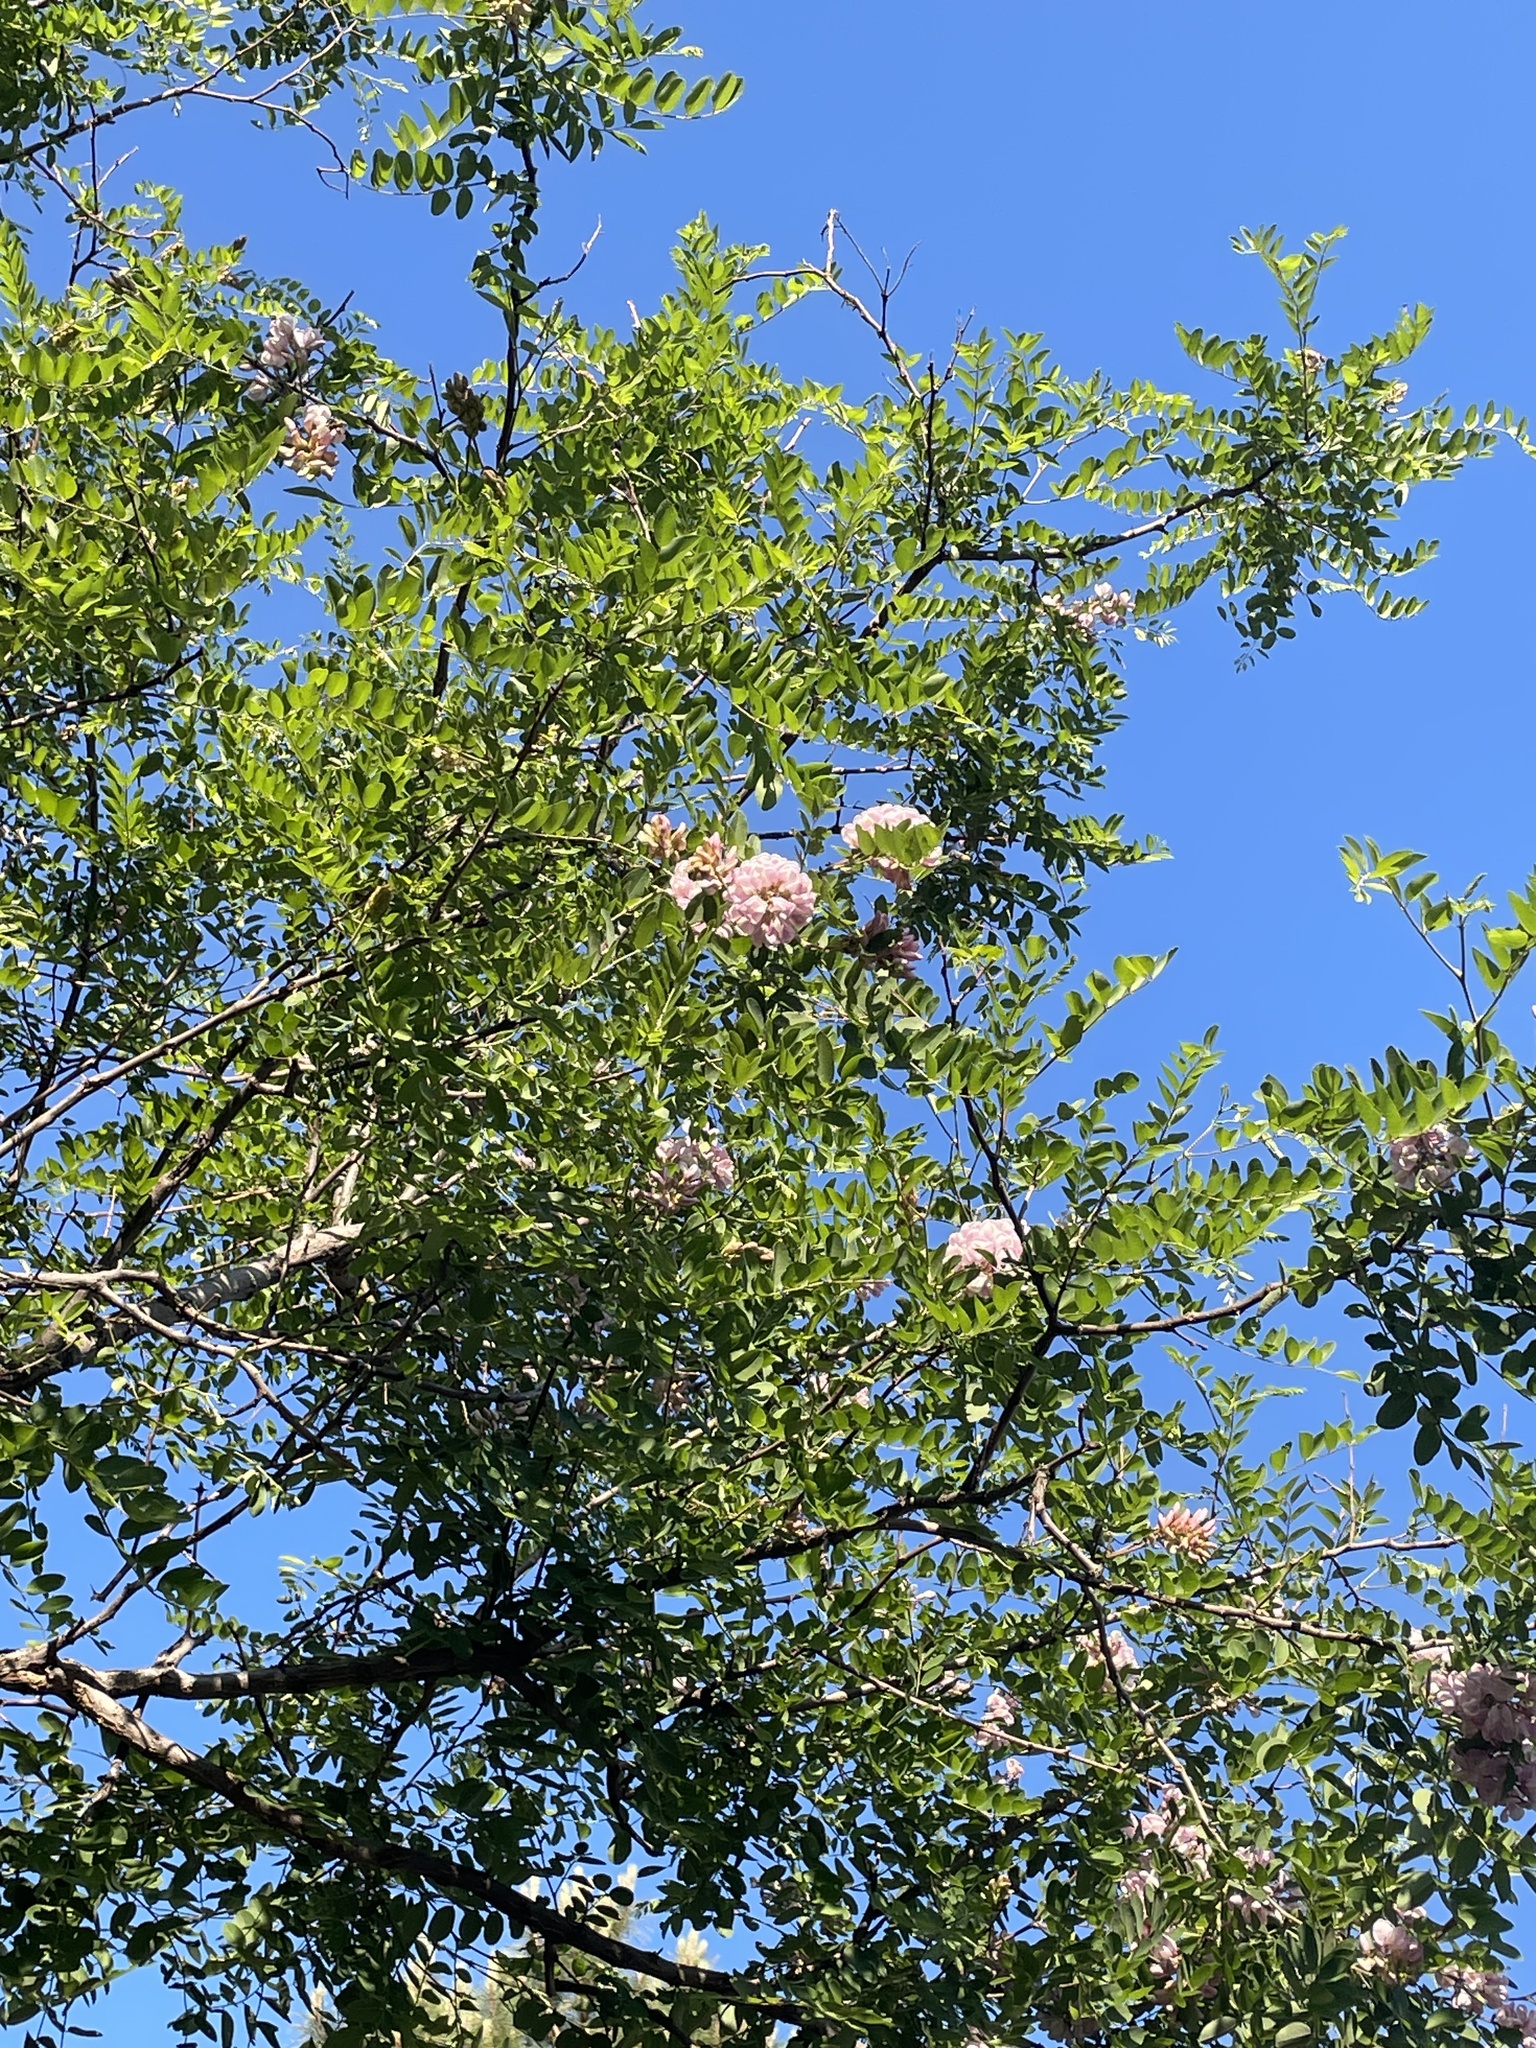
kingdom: Plantae
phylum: Tracheophyta
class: Magnoliopsida
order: Fabales
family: Fabaceae
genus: Robinia
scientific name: Robinia neomexicana
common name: New mexico locust
